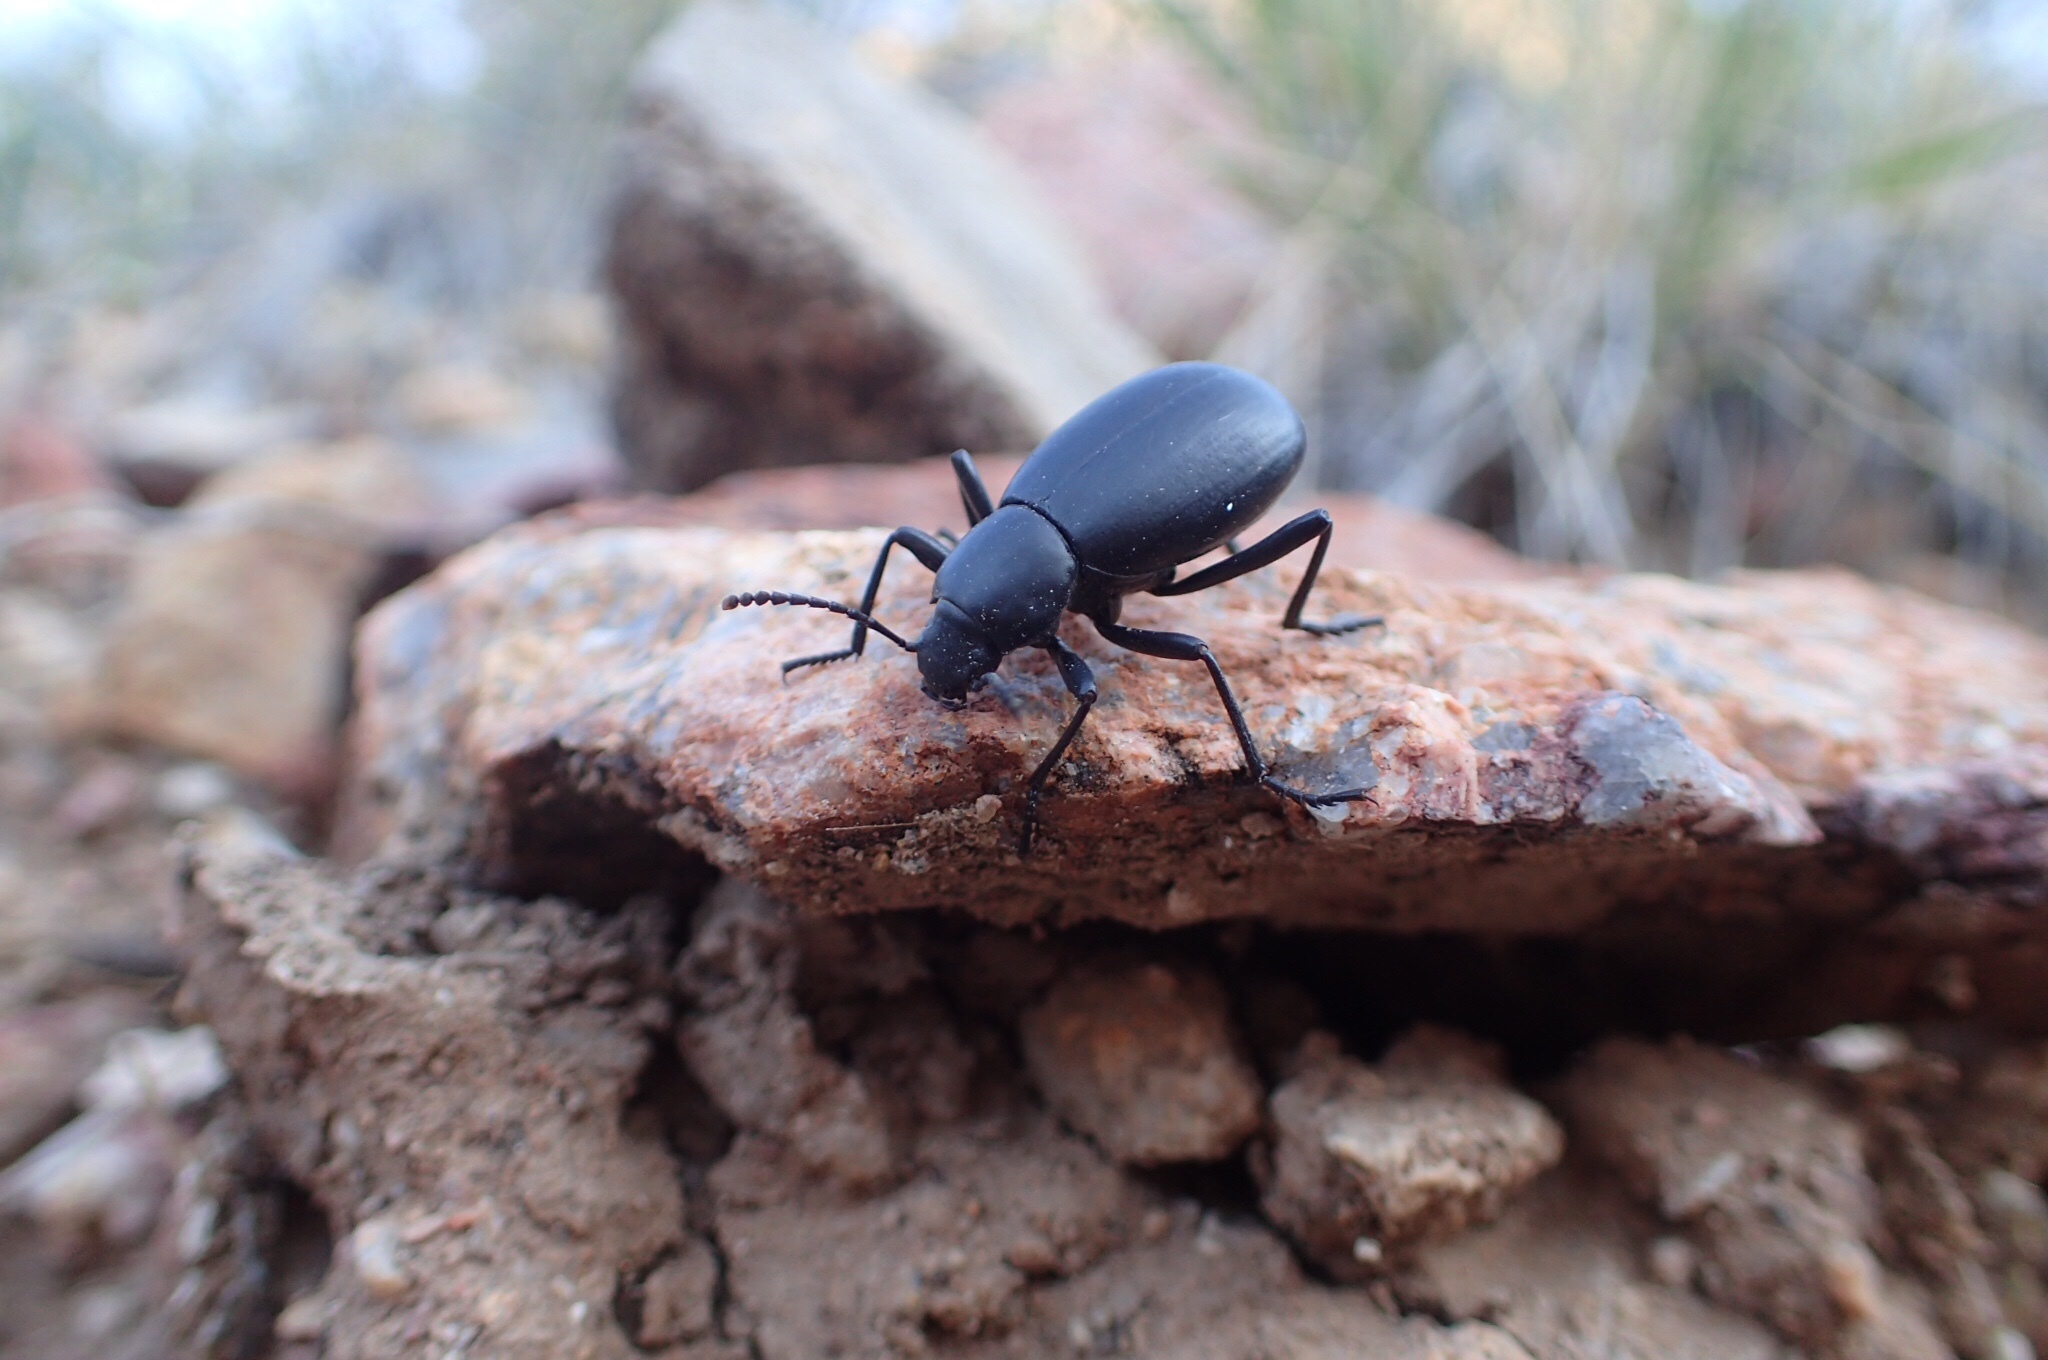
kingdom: Animalia
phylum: Arthropoda
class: Insecta
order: Coleoptera
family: Tenebrionidae
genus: Eleodes
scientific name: Eleodes knullorum
